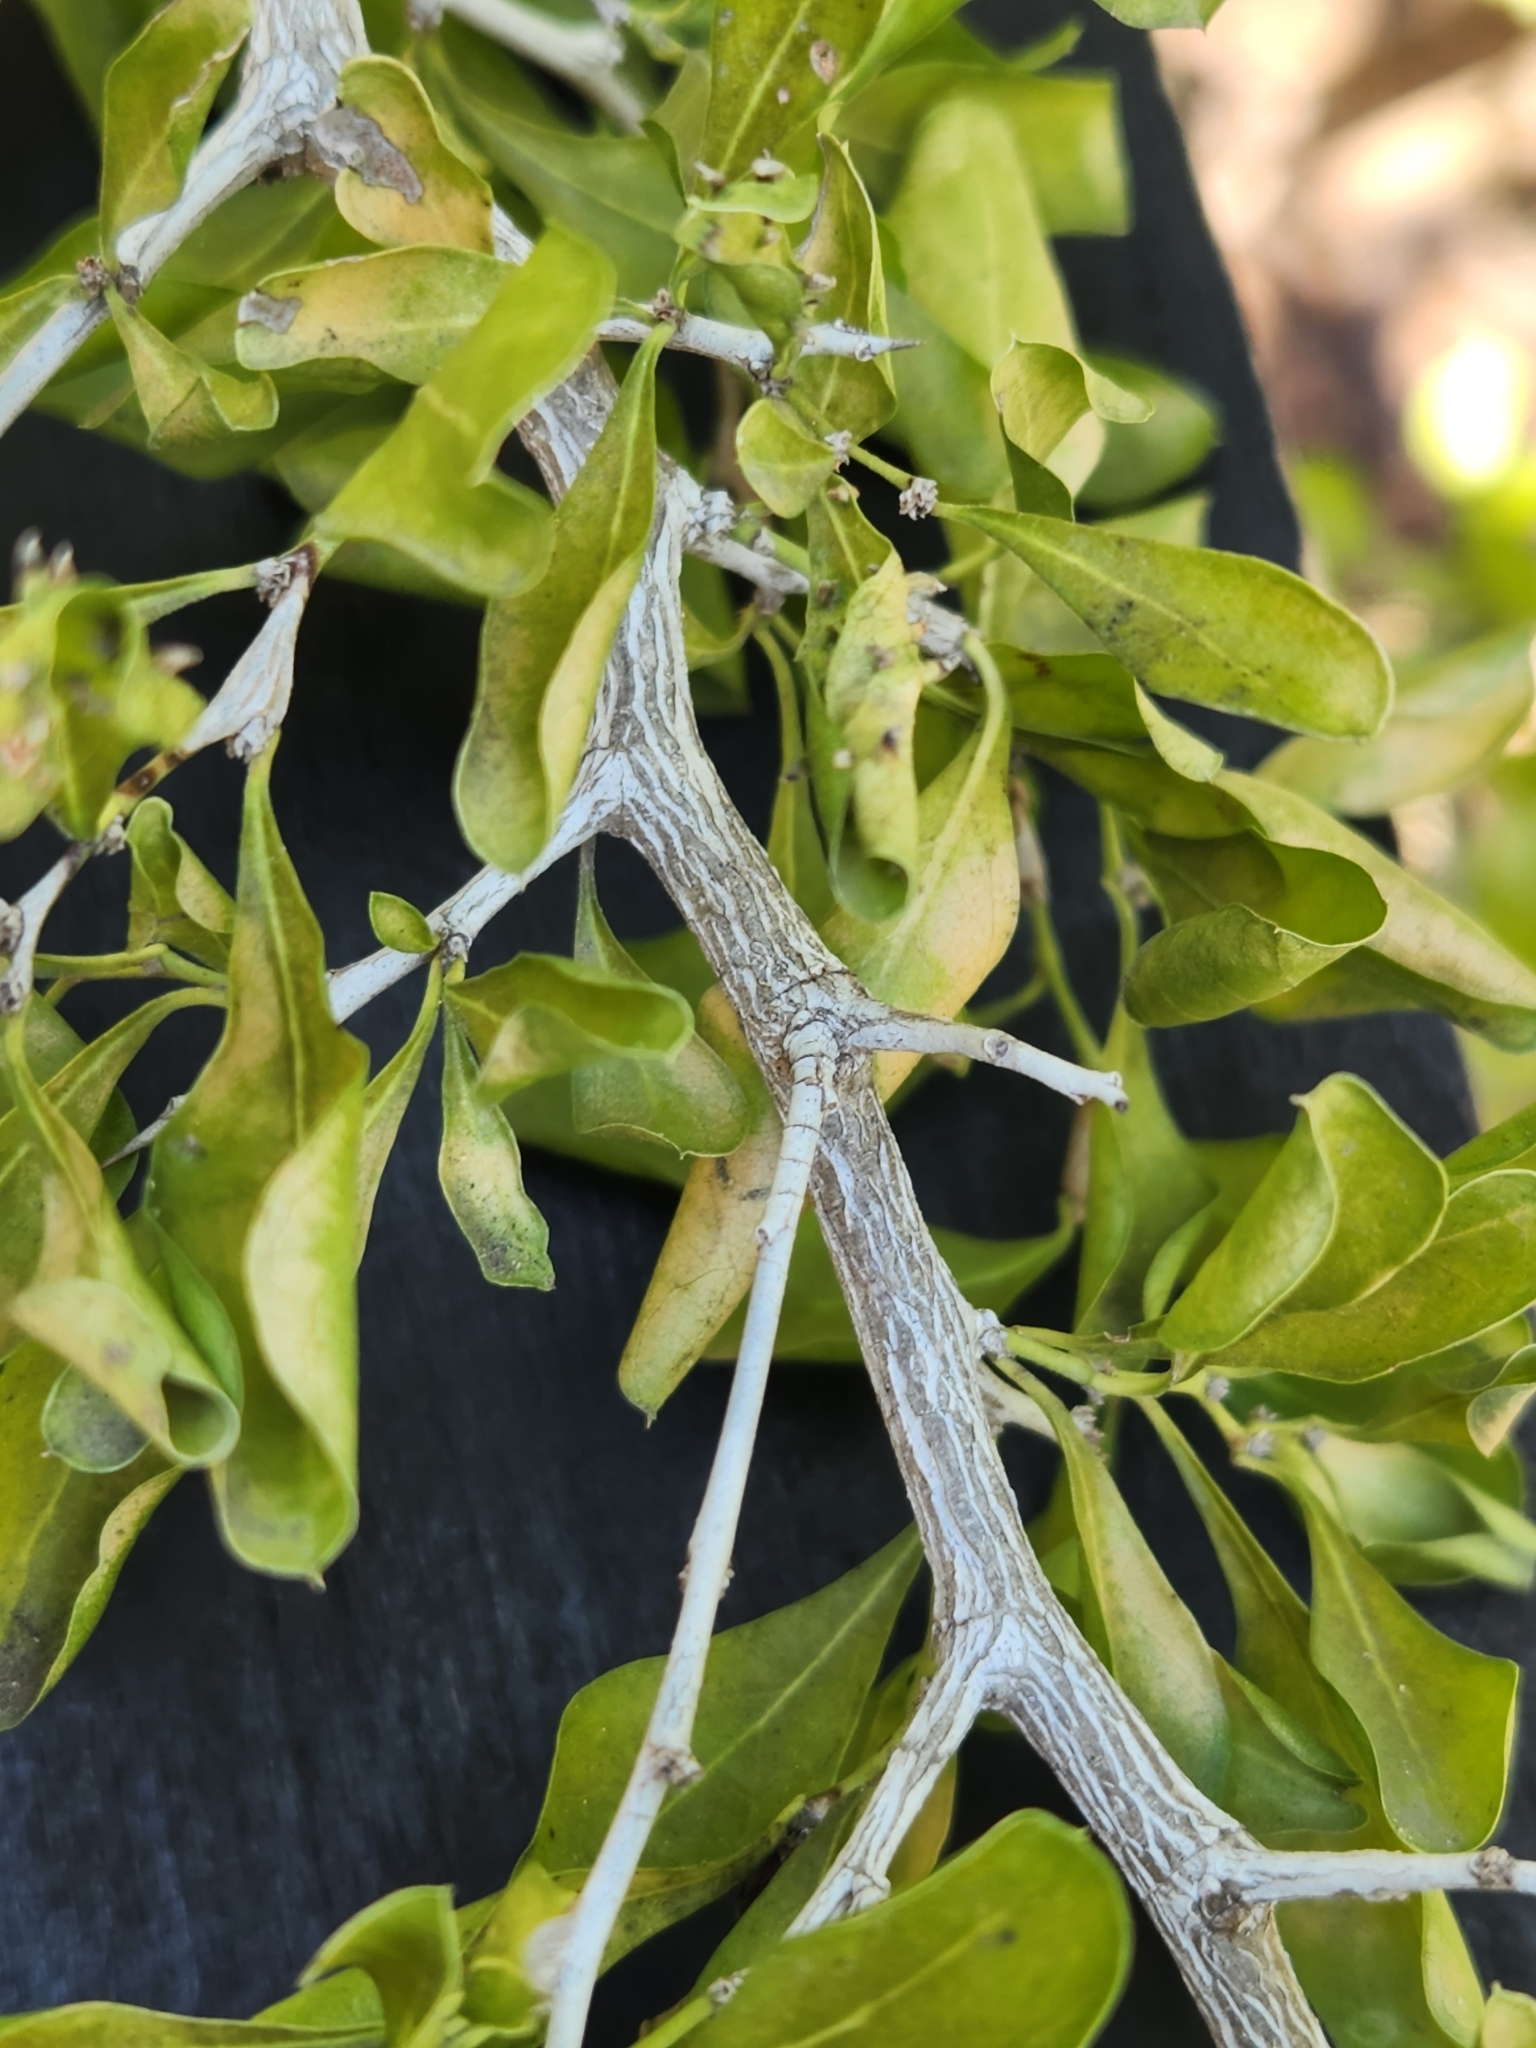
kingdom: Plantae
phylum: Tracheophyta
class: Magnoliopsida
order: Rosales
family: Rhamnaceae
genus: Condalia
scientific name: Condalia hookeri
